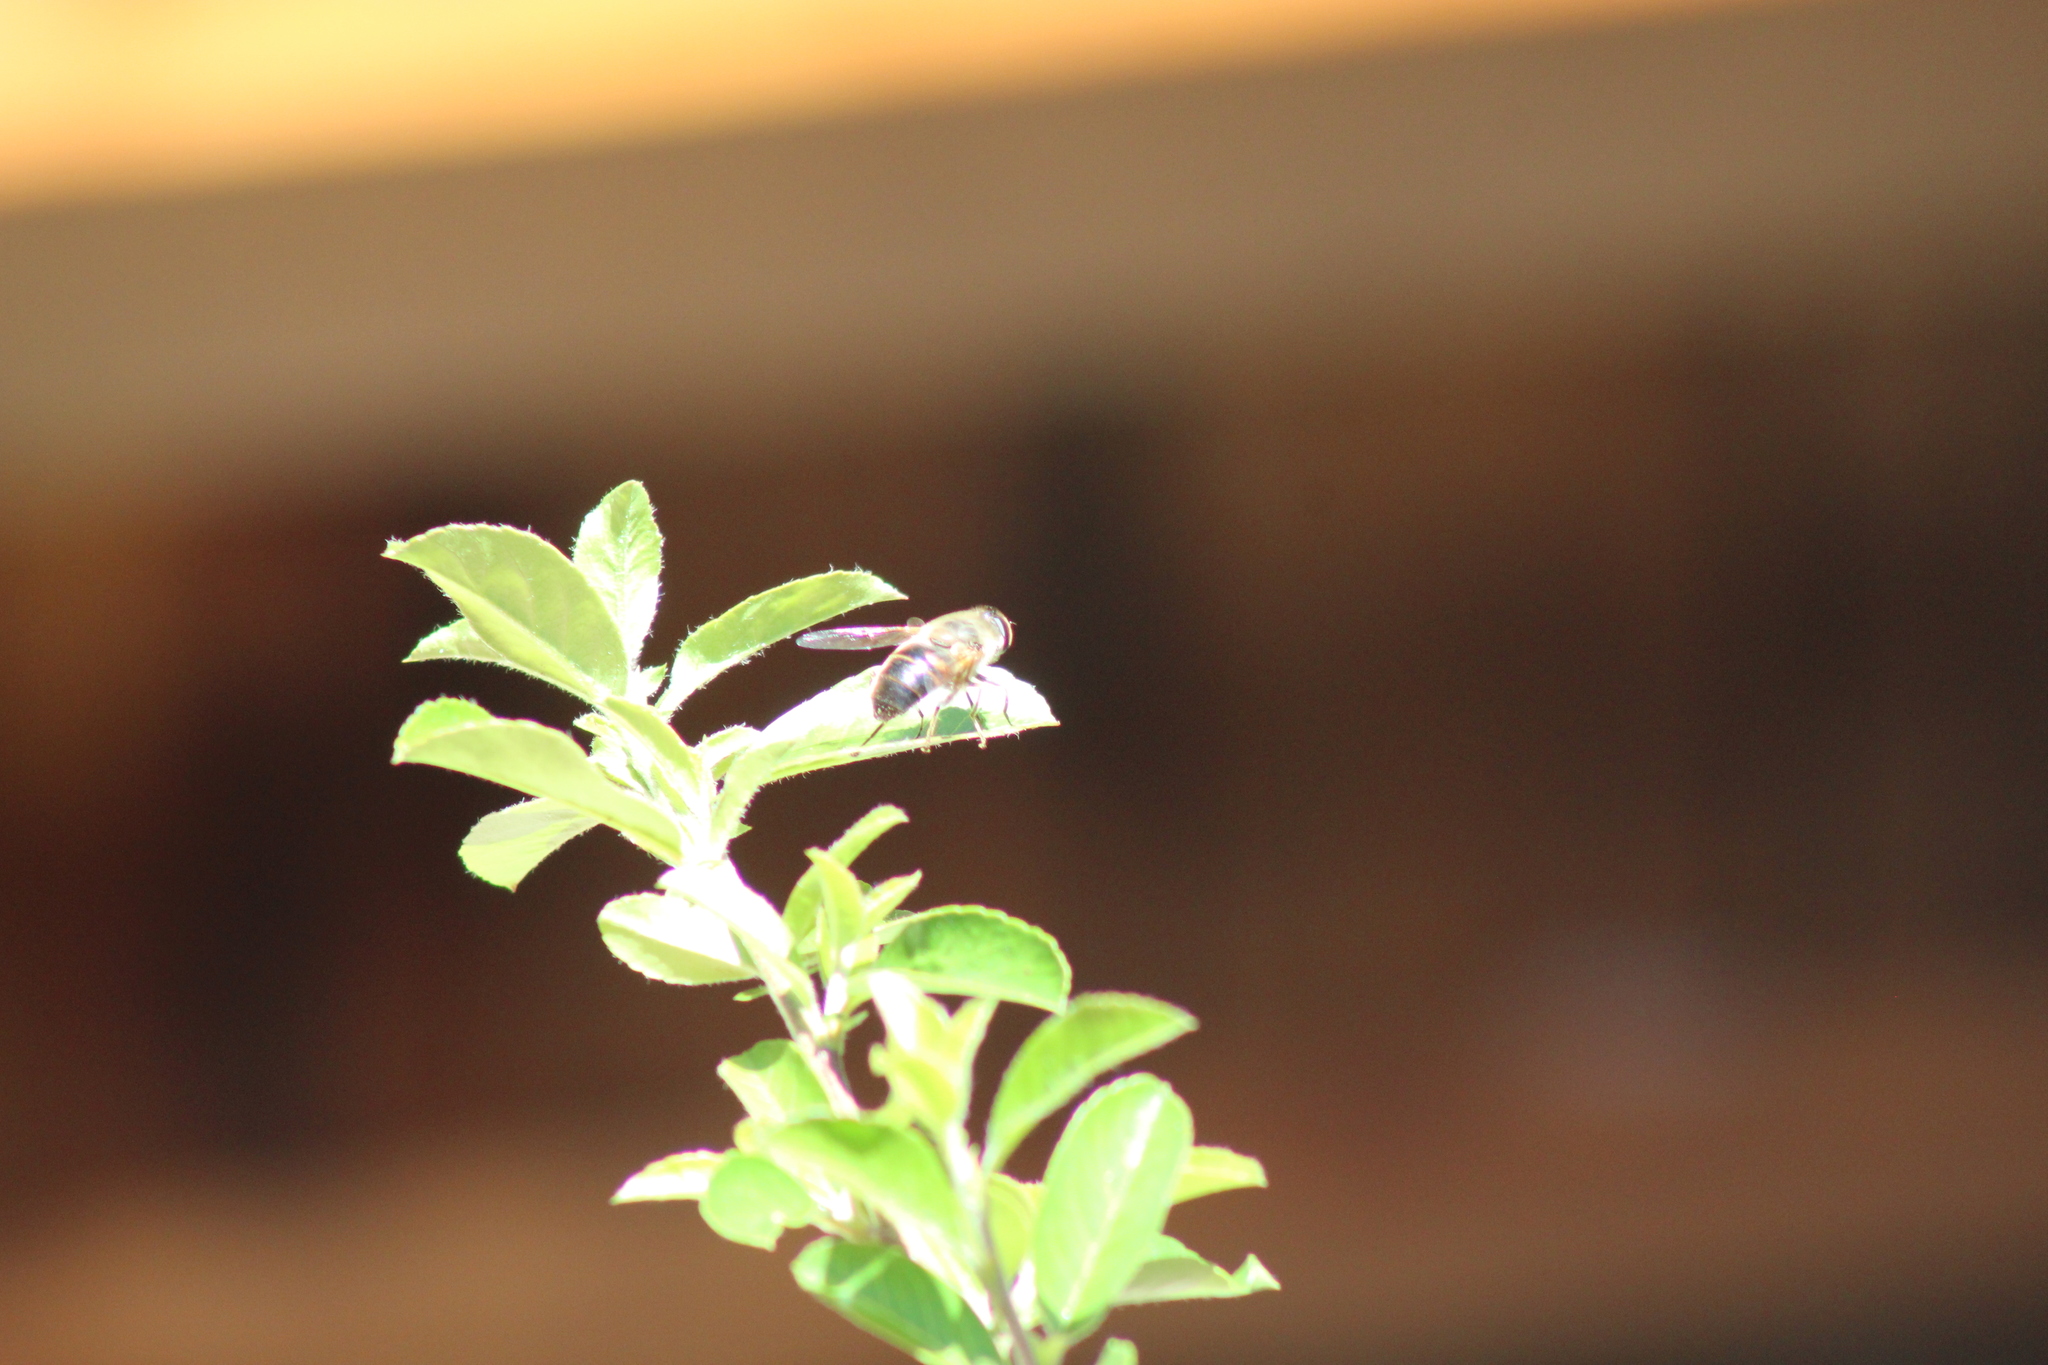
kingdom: Animalia
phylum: Arthropoda
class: Insecta
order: Diptera
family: Syrphidae
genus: Eristalis
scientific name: Eristalis tenax
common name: Drone fly
